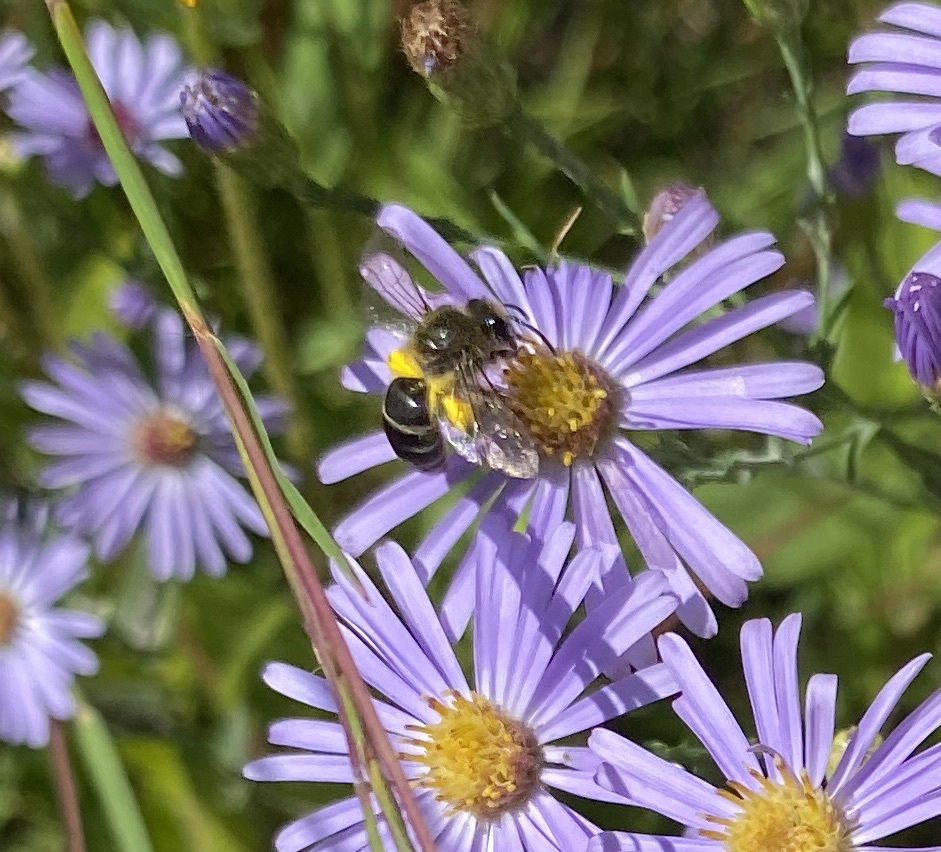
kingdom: Animalia
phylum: Arthropoda
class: Insecta
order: Hymenoptera
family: Colletidae
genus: Colletes
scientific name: Colletes compactus
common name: Aster cellophane bee
